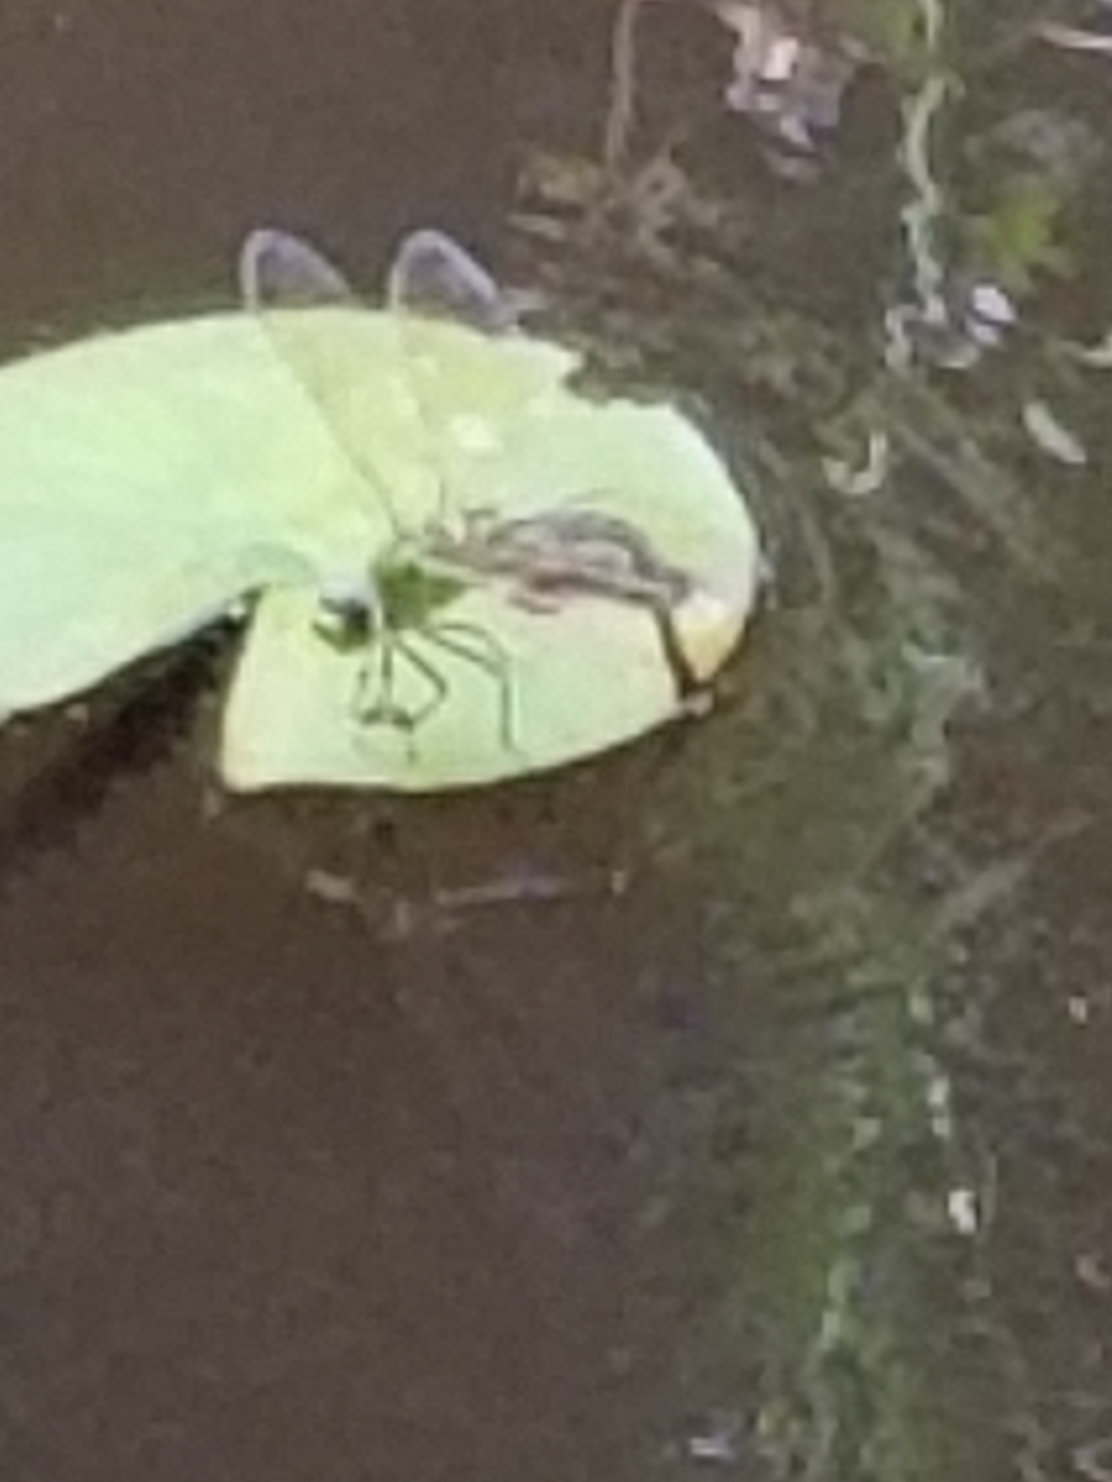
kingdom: Animalia
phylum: Arthropoda
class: Insecta
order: Odonata
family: Aeshnidae
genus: Anax
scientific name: Anax junius
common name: Common green darner
